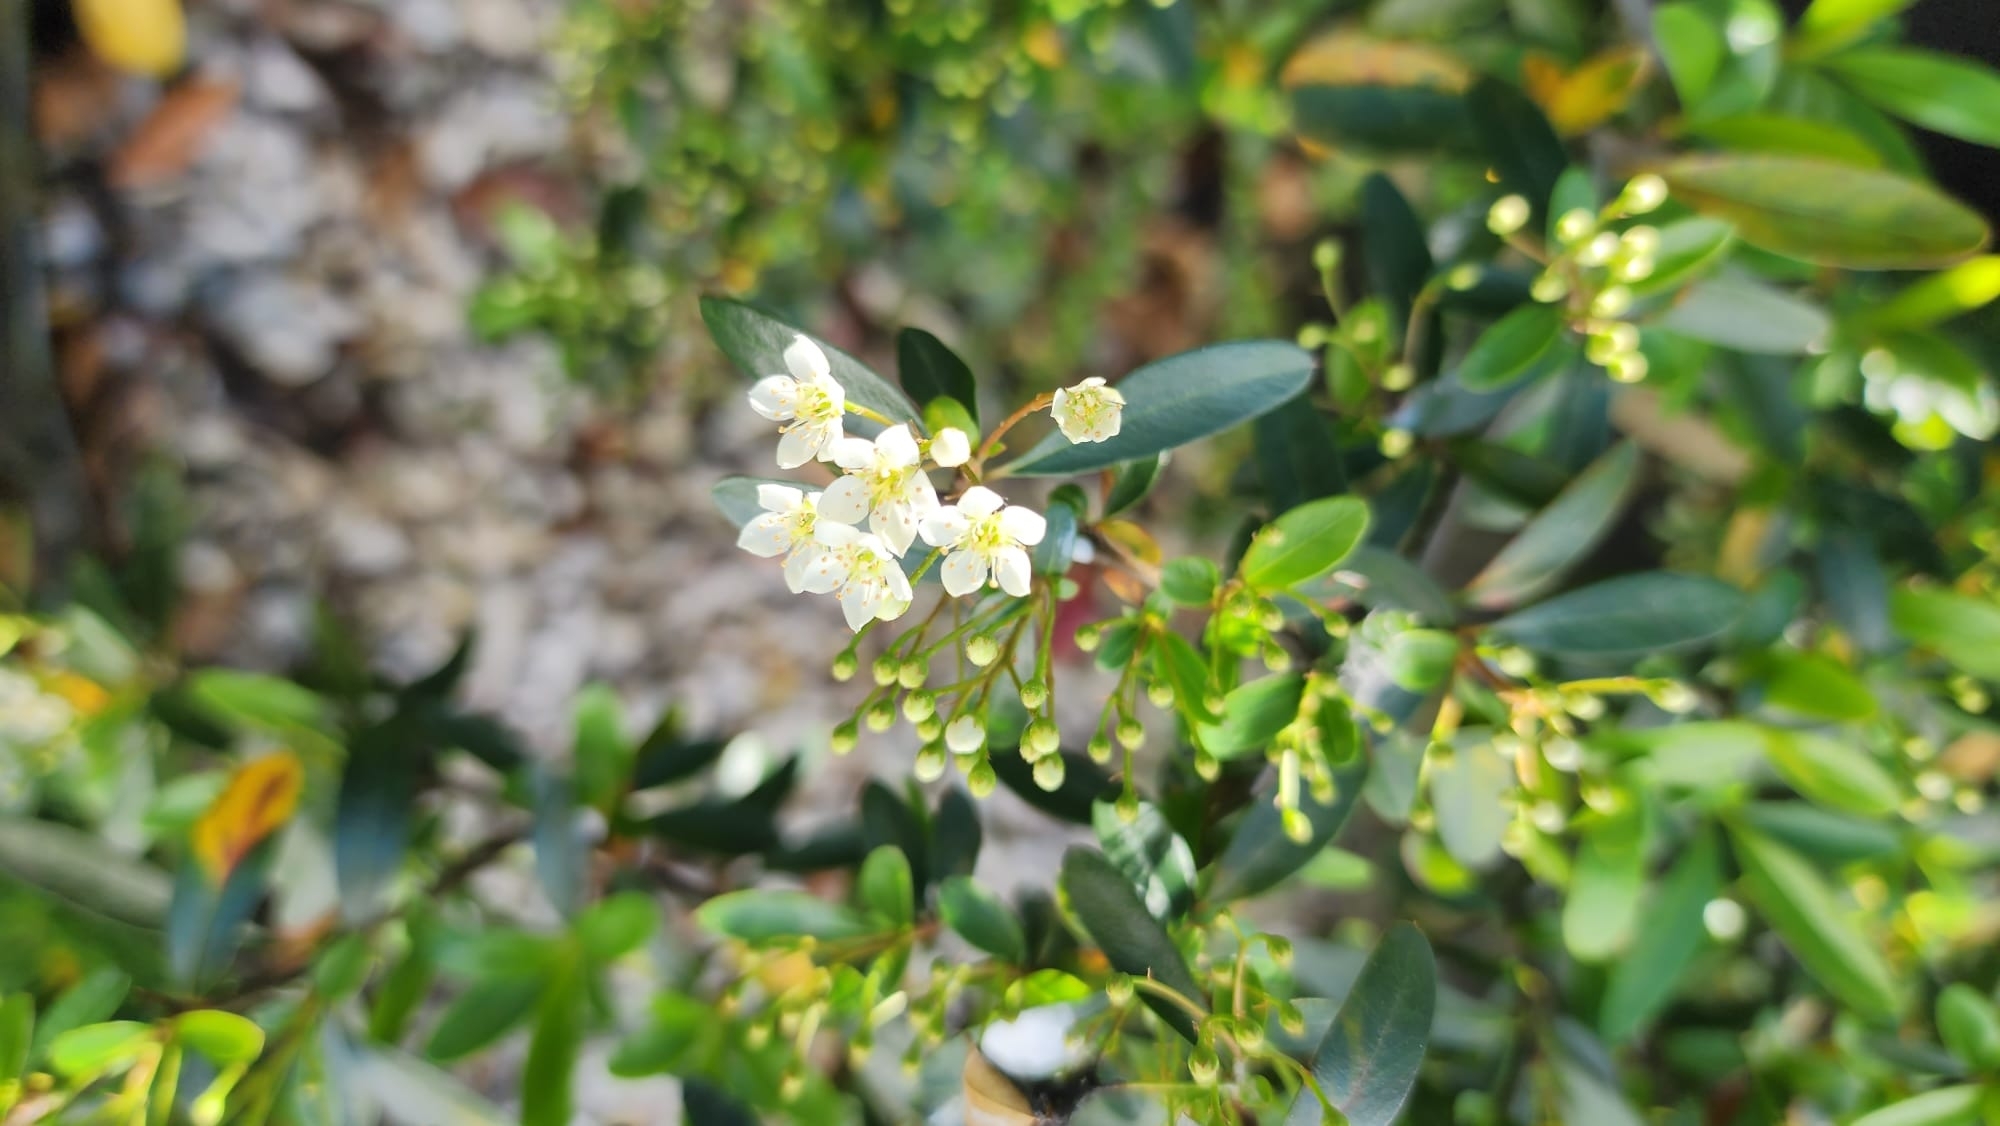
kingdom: Plantae
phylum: Tracheophyta
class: Magnoliopsida
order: Rosales
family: Rosaceae
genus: Pyracantha
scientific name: Pyracantha crenulata
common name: Nepalese firethorn
